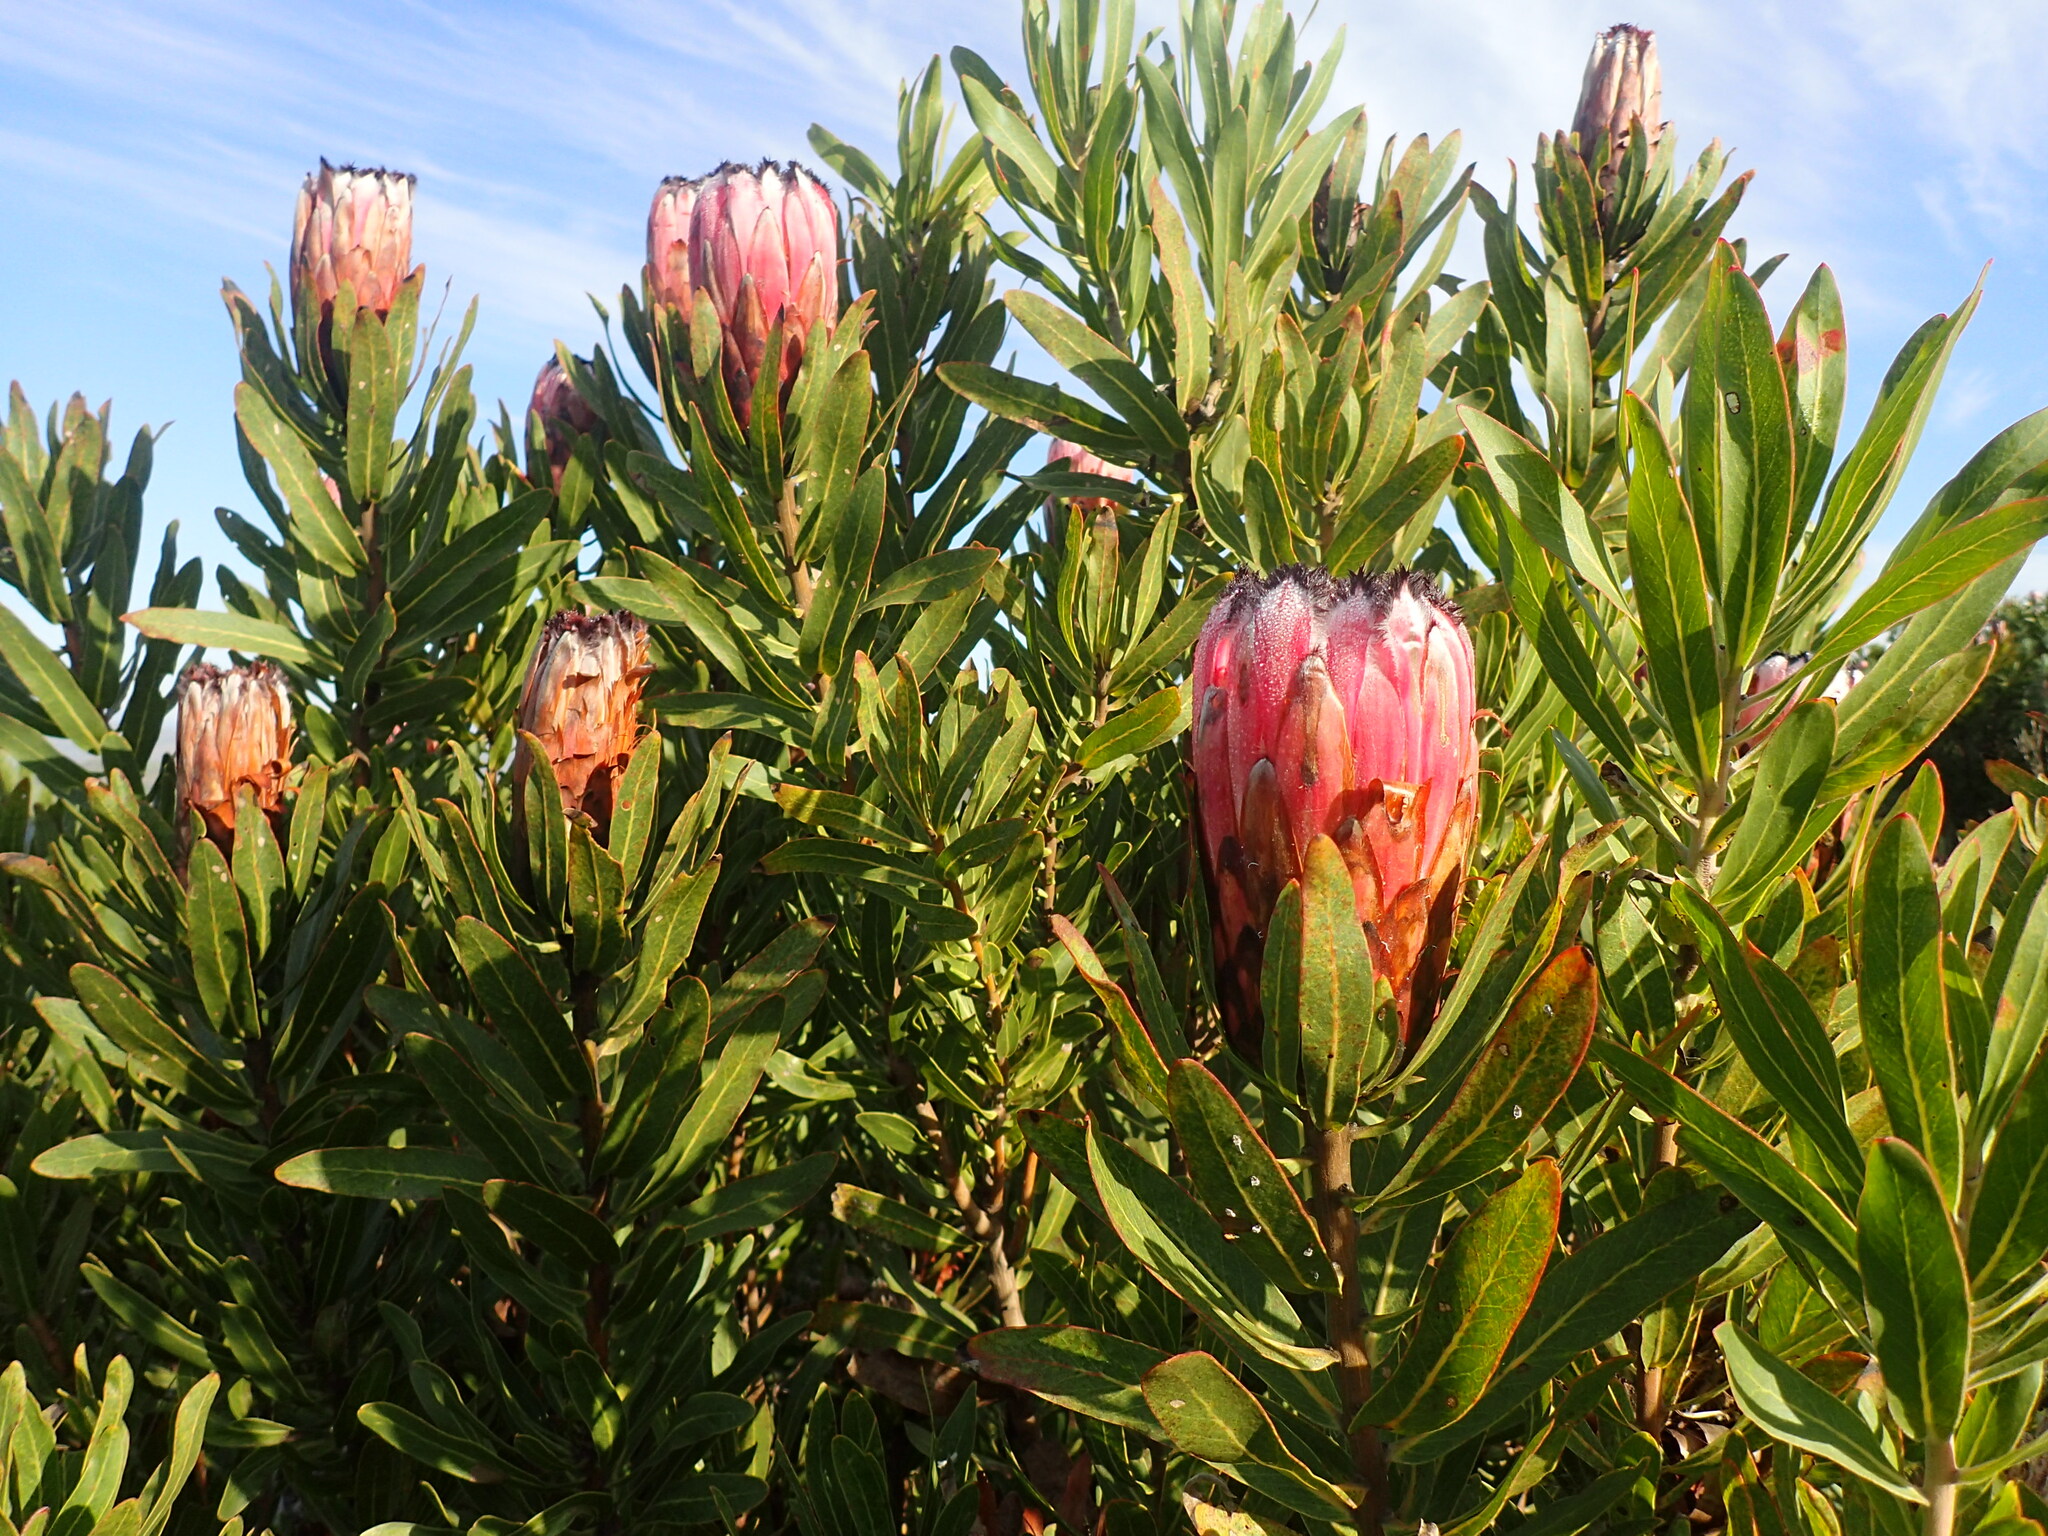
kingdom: Plantae
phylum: Tracheophyta
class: Magnoliopsida
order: Proteales
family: Proteaceae
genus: Protea
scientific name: Protea neriifolia
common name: Blue sugarbush
